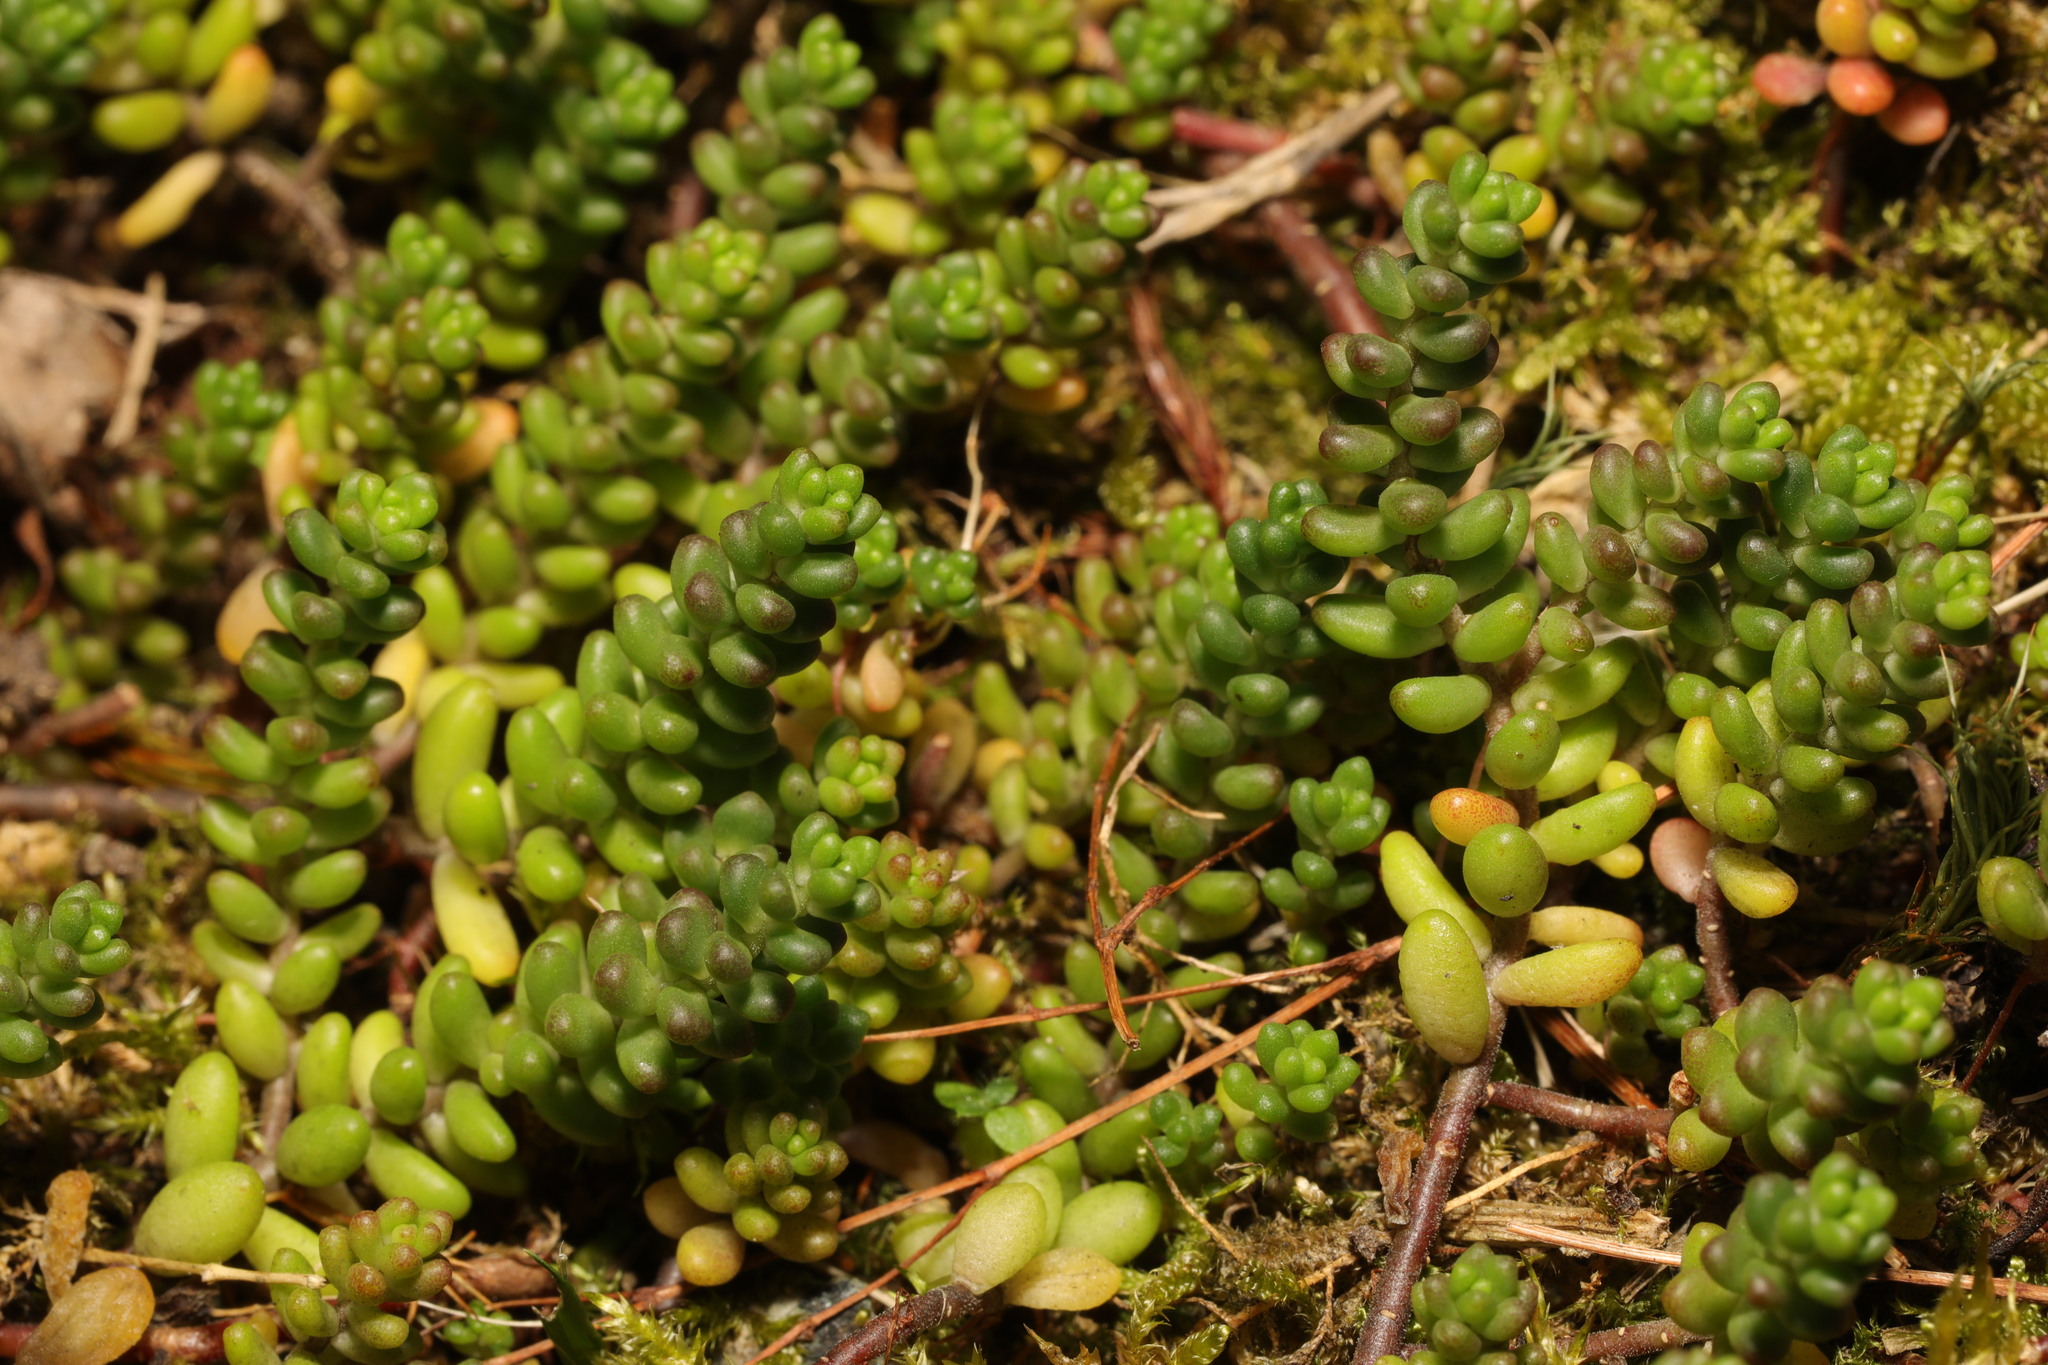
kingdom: Plantae
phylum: Tracheophyta
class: Magnoliopsida
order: Saxifragales
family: Crassulaceae
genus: Sedum
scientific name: Sedum album
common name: White stonecrop
